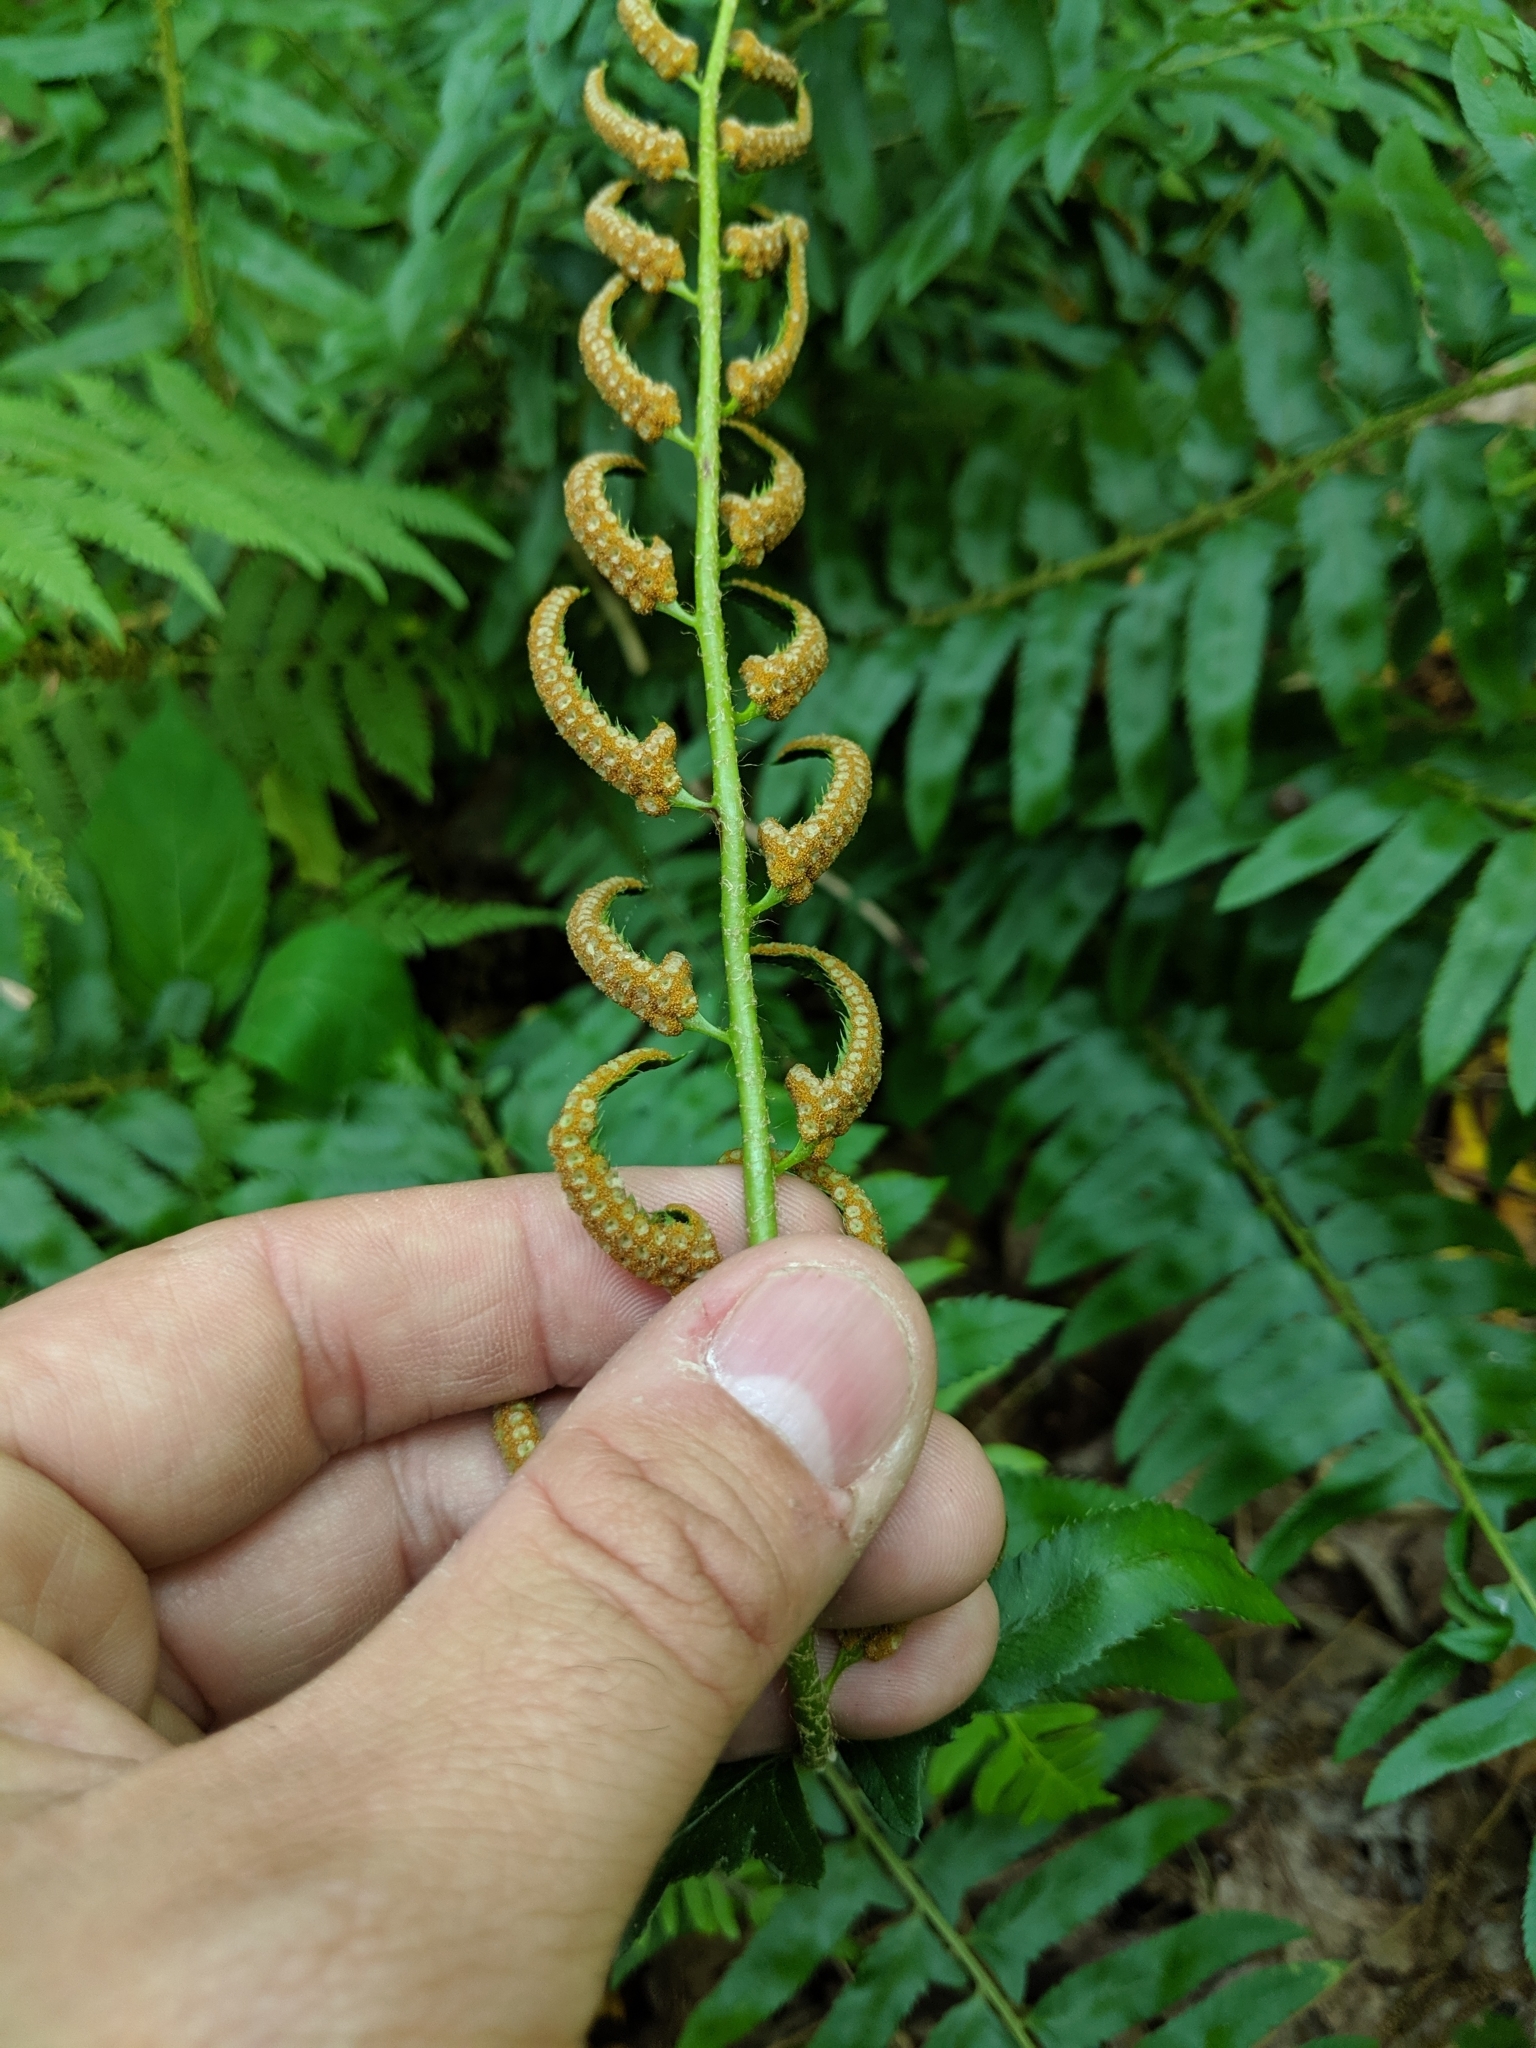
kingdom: Plantae
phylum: Tracheophyta
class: Polypodiopsida
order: Polypodiales
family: Dryopteridaceae
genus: Polystichum
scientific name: Polystichum acrostichoides
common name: Christmas fern
